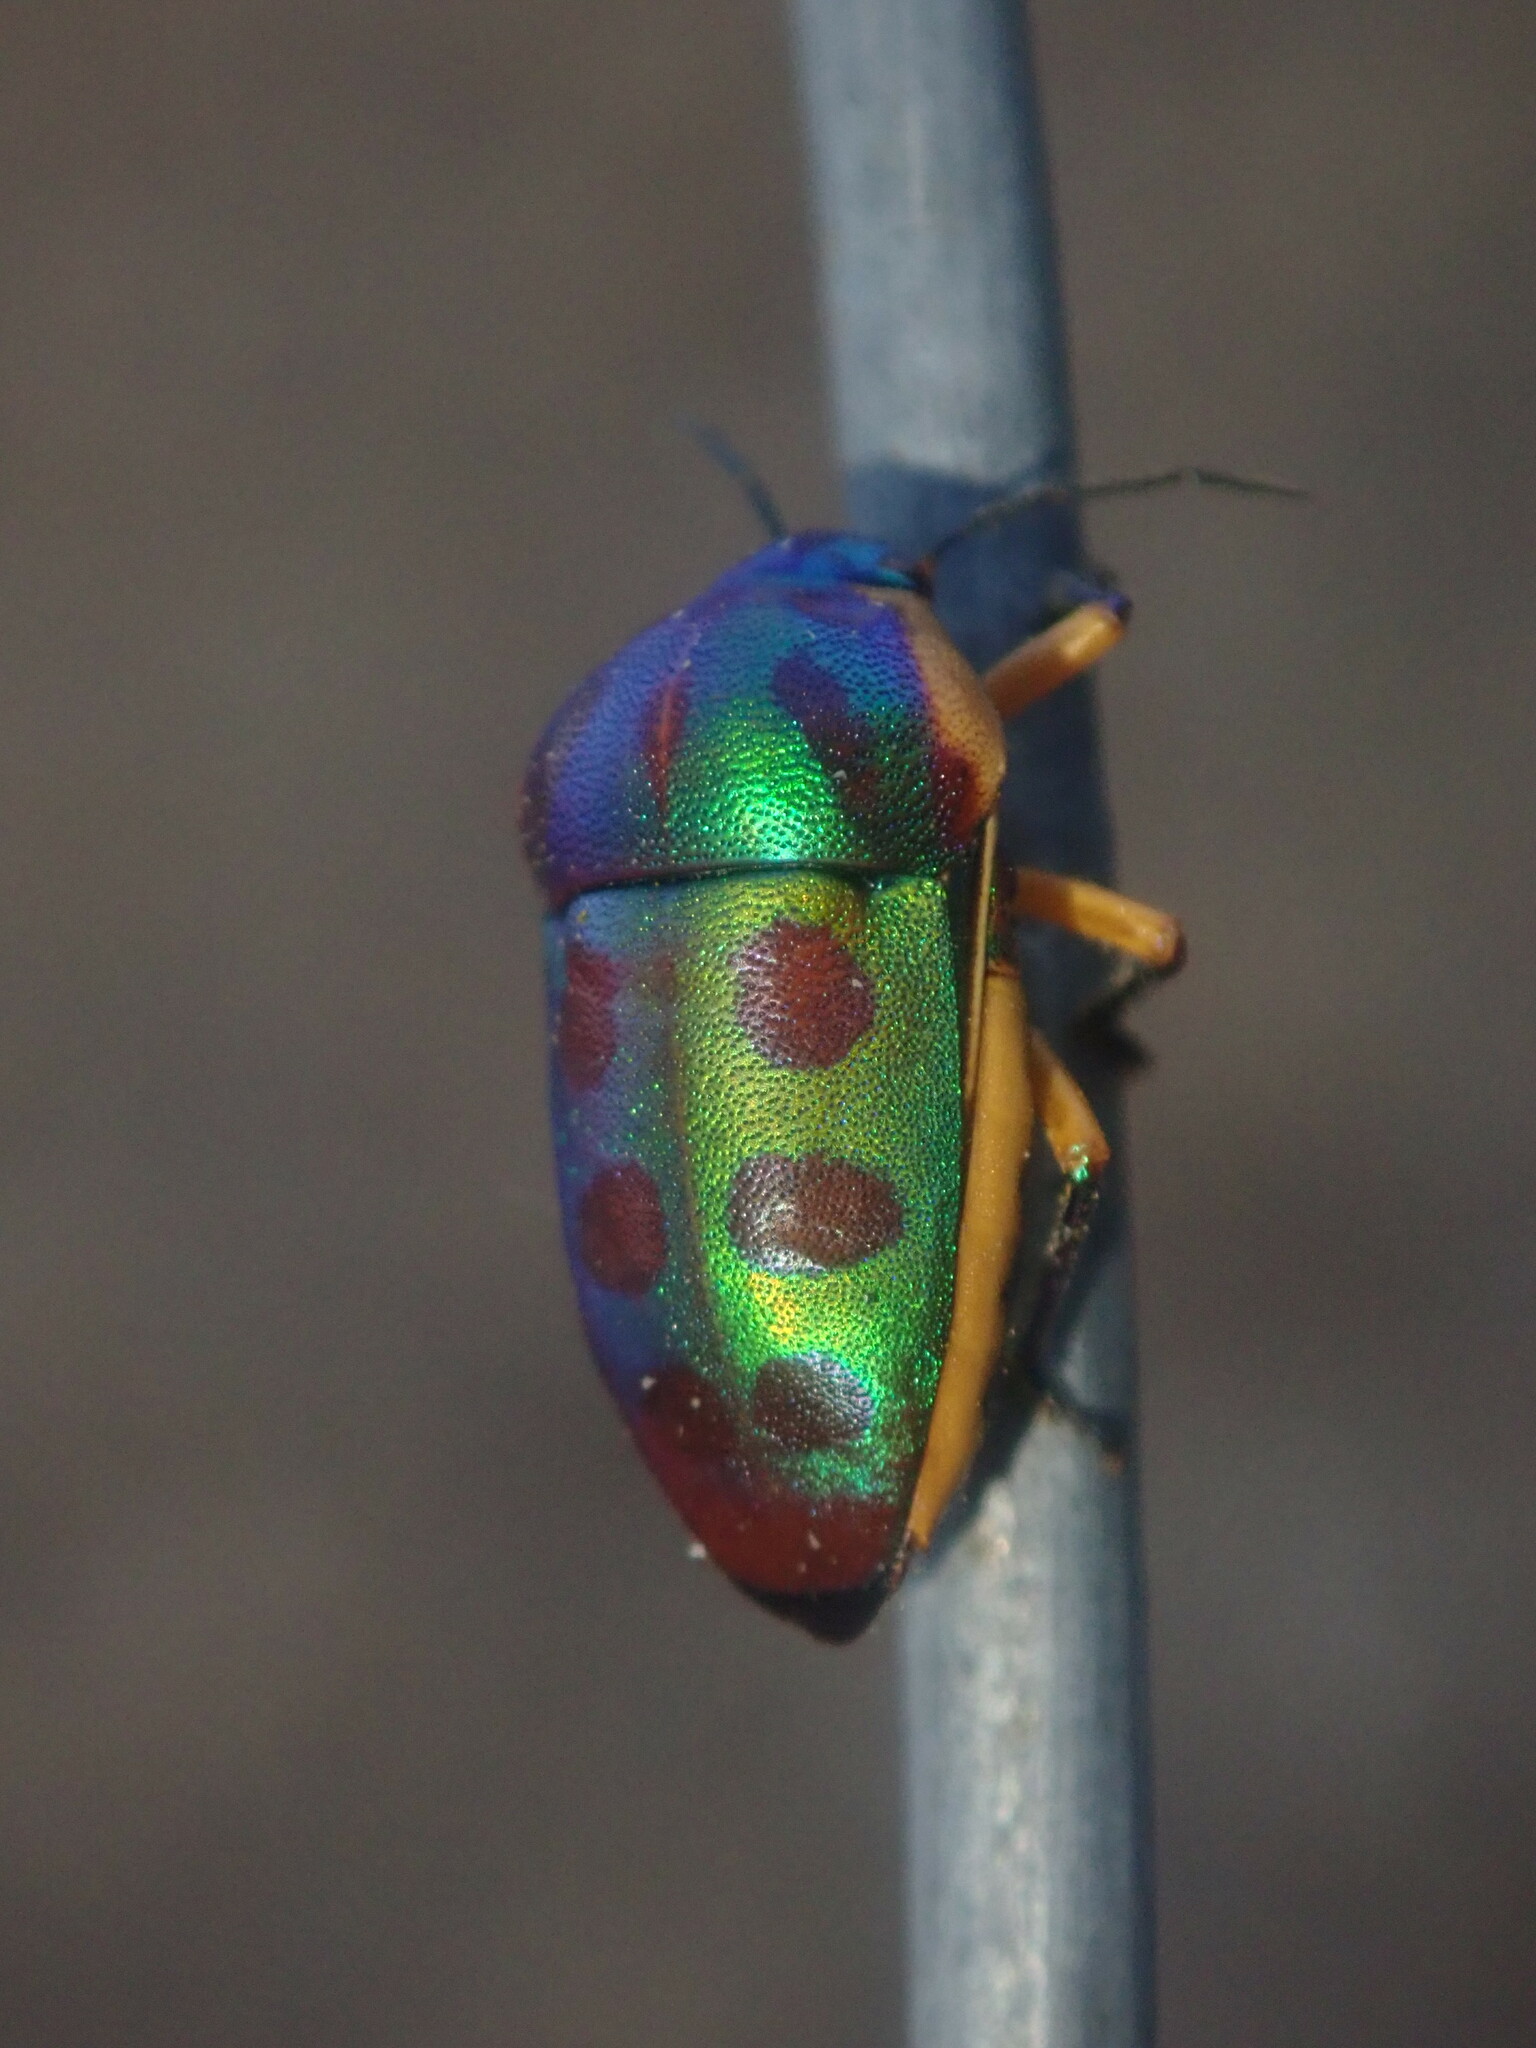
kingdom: Animalia
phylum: Arthropoda
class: Insecta
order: Hemiptera
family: Scutelleridae
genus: Calidea
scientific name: Calidea
